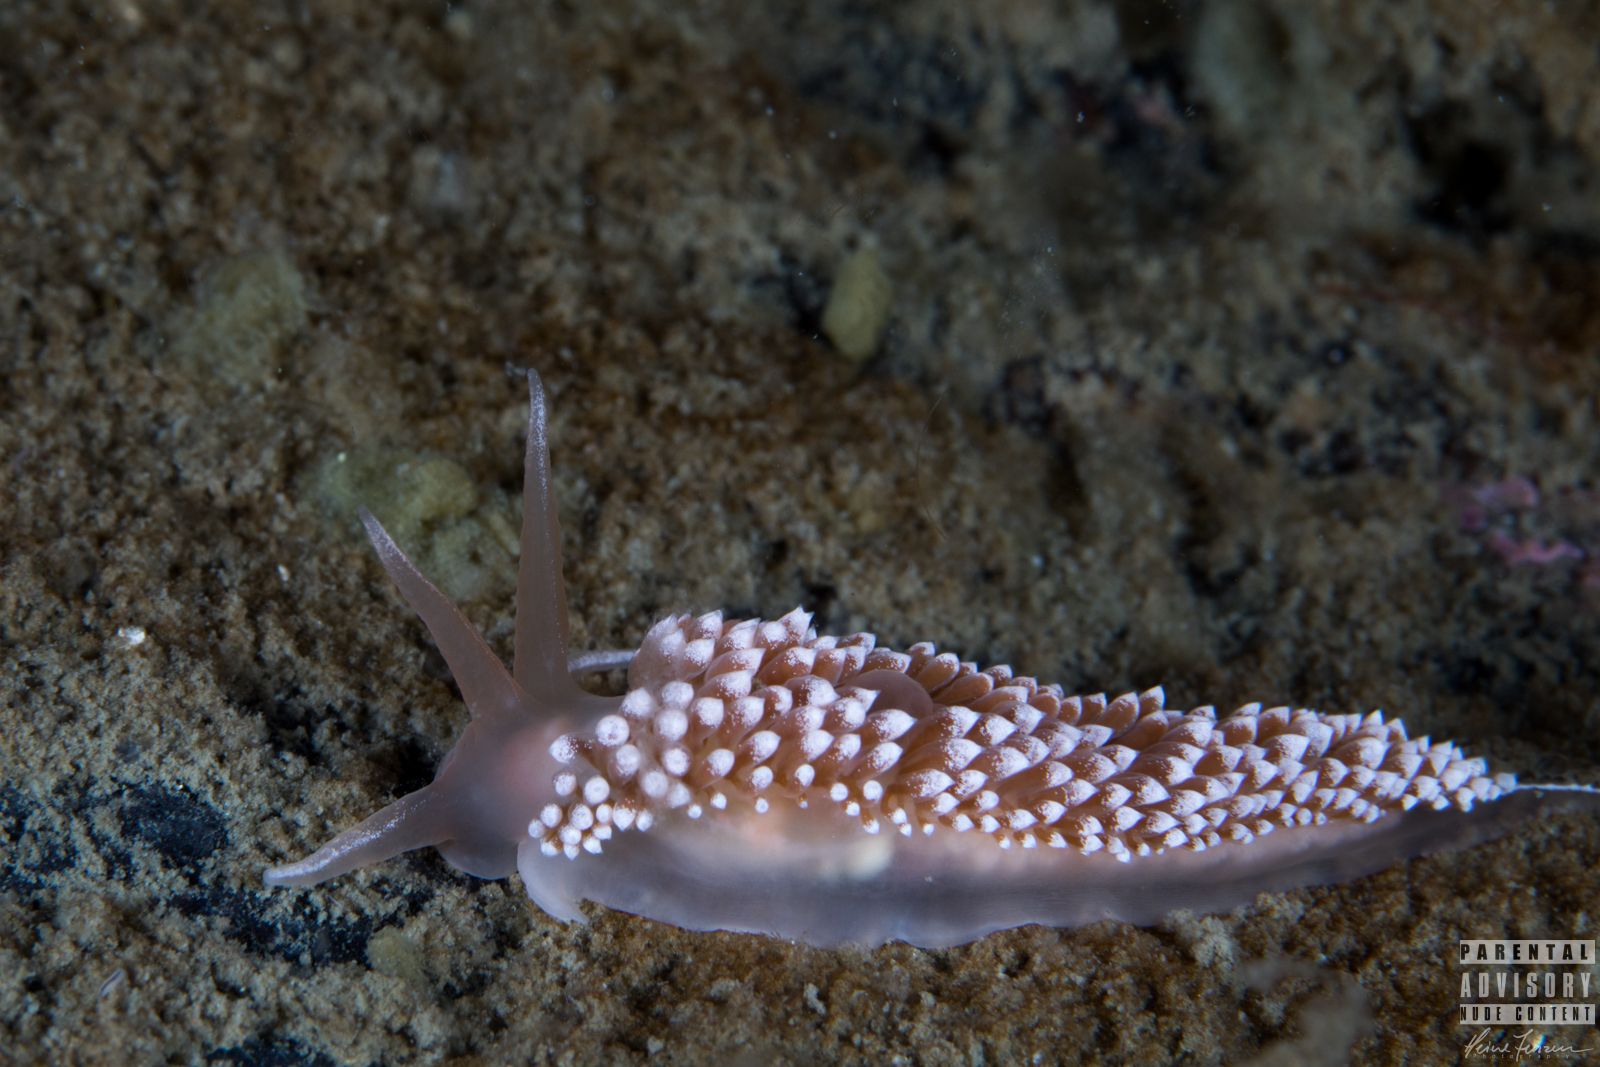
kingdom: Animalia
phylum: Mollusca
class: Gastropoda
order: Nudibranchia
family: Coryphellidae
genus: Coryphella
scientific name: Coryphella verrucosa
